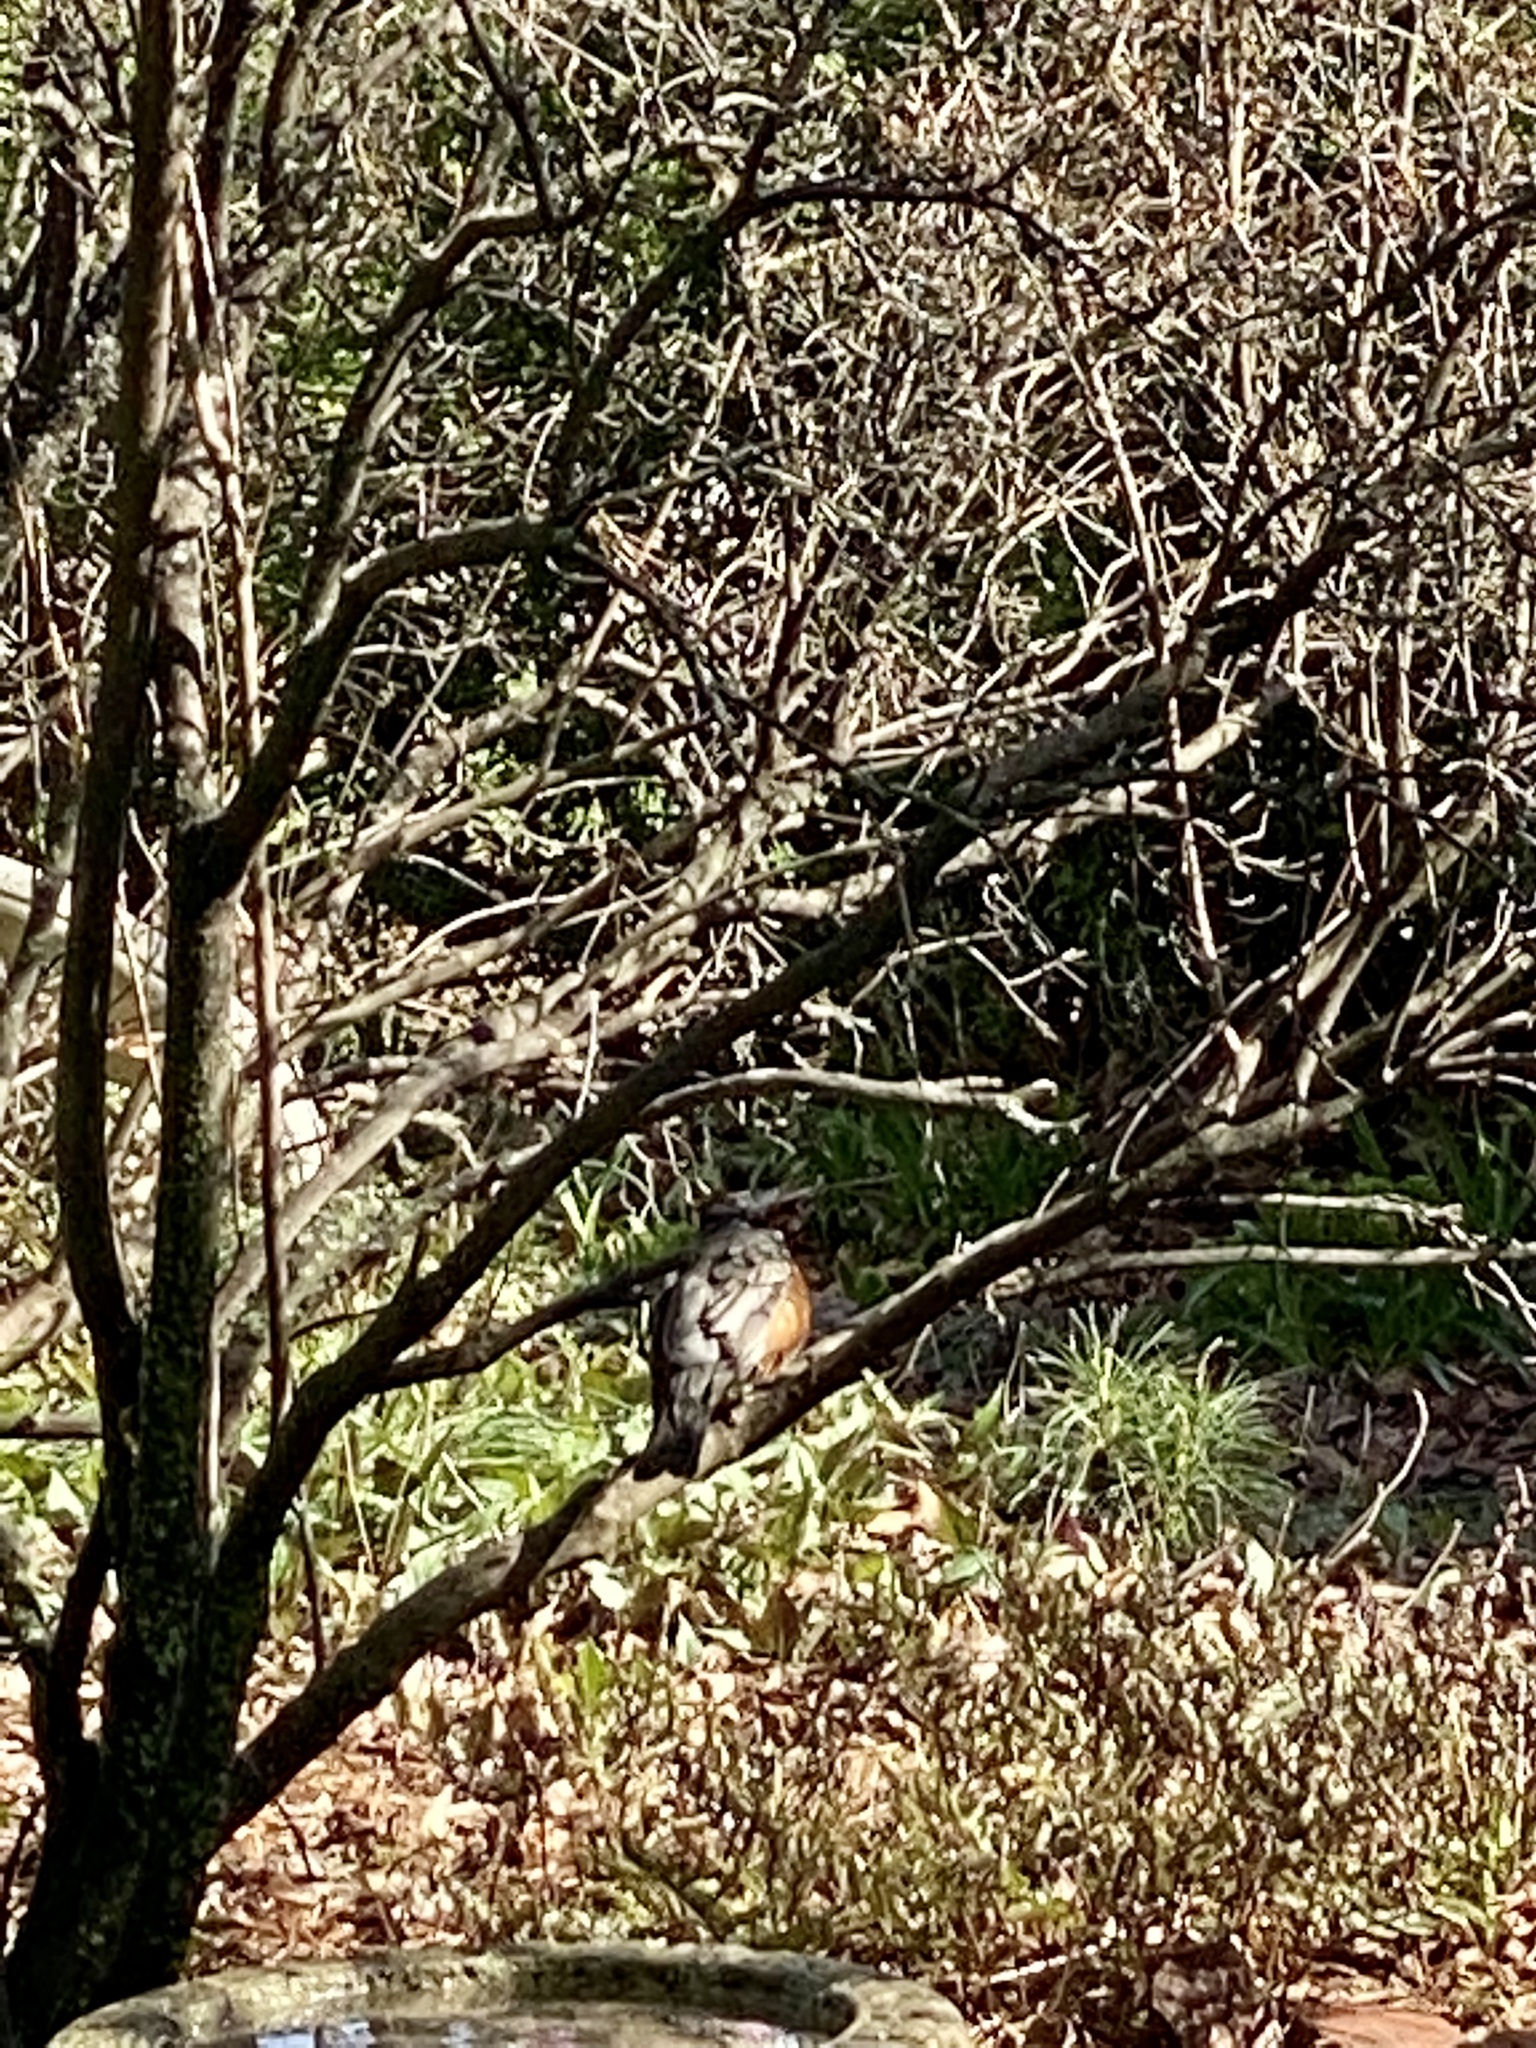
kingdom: Animalia
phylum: Chordata
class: Aves
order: Passeriformes
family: Turdidae
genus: Turdus
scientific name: Turdus migratorius
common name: American robin
